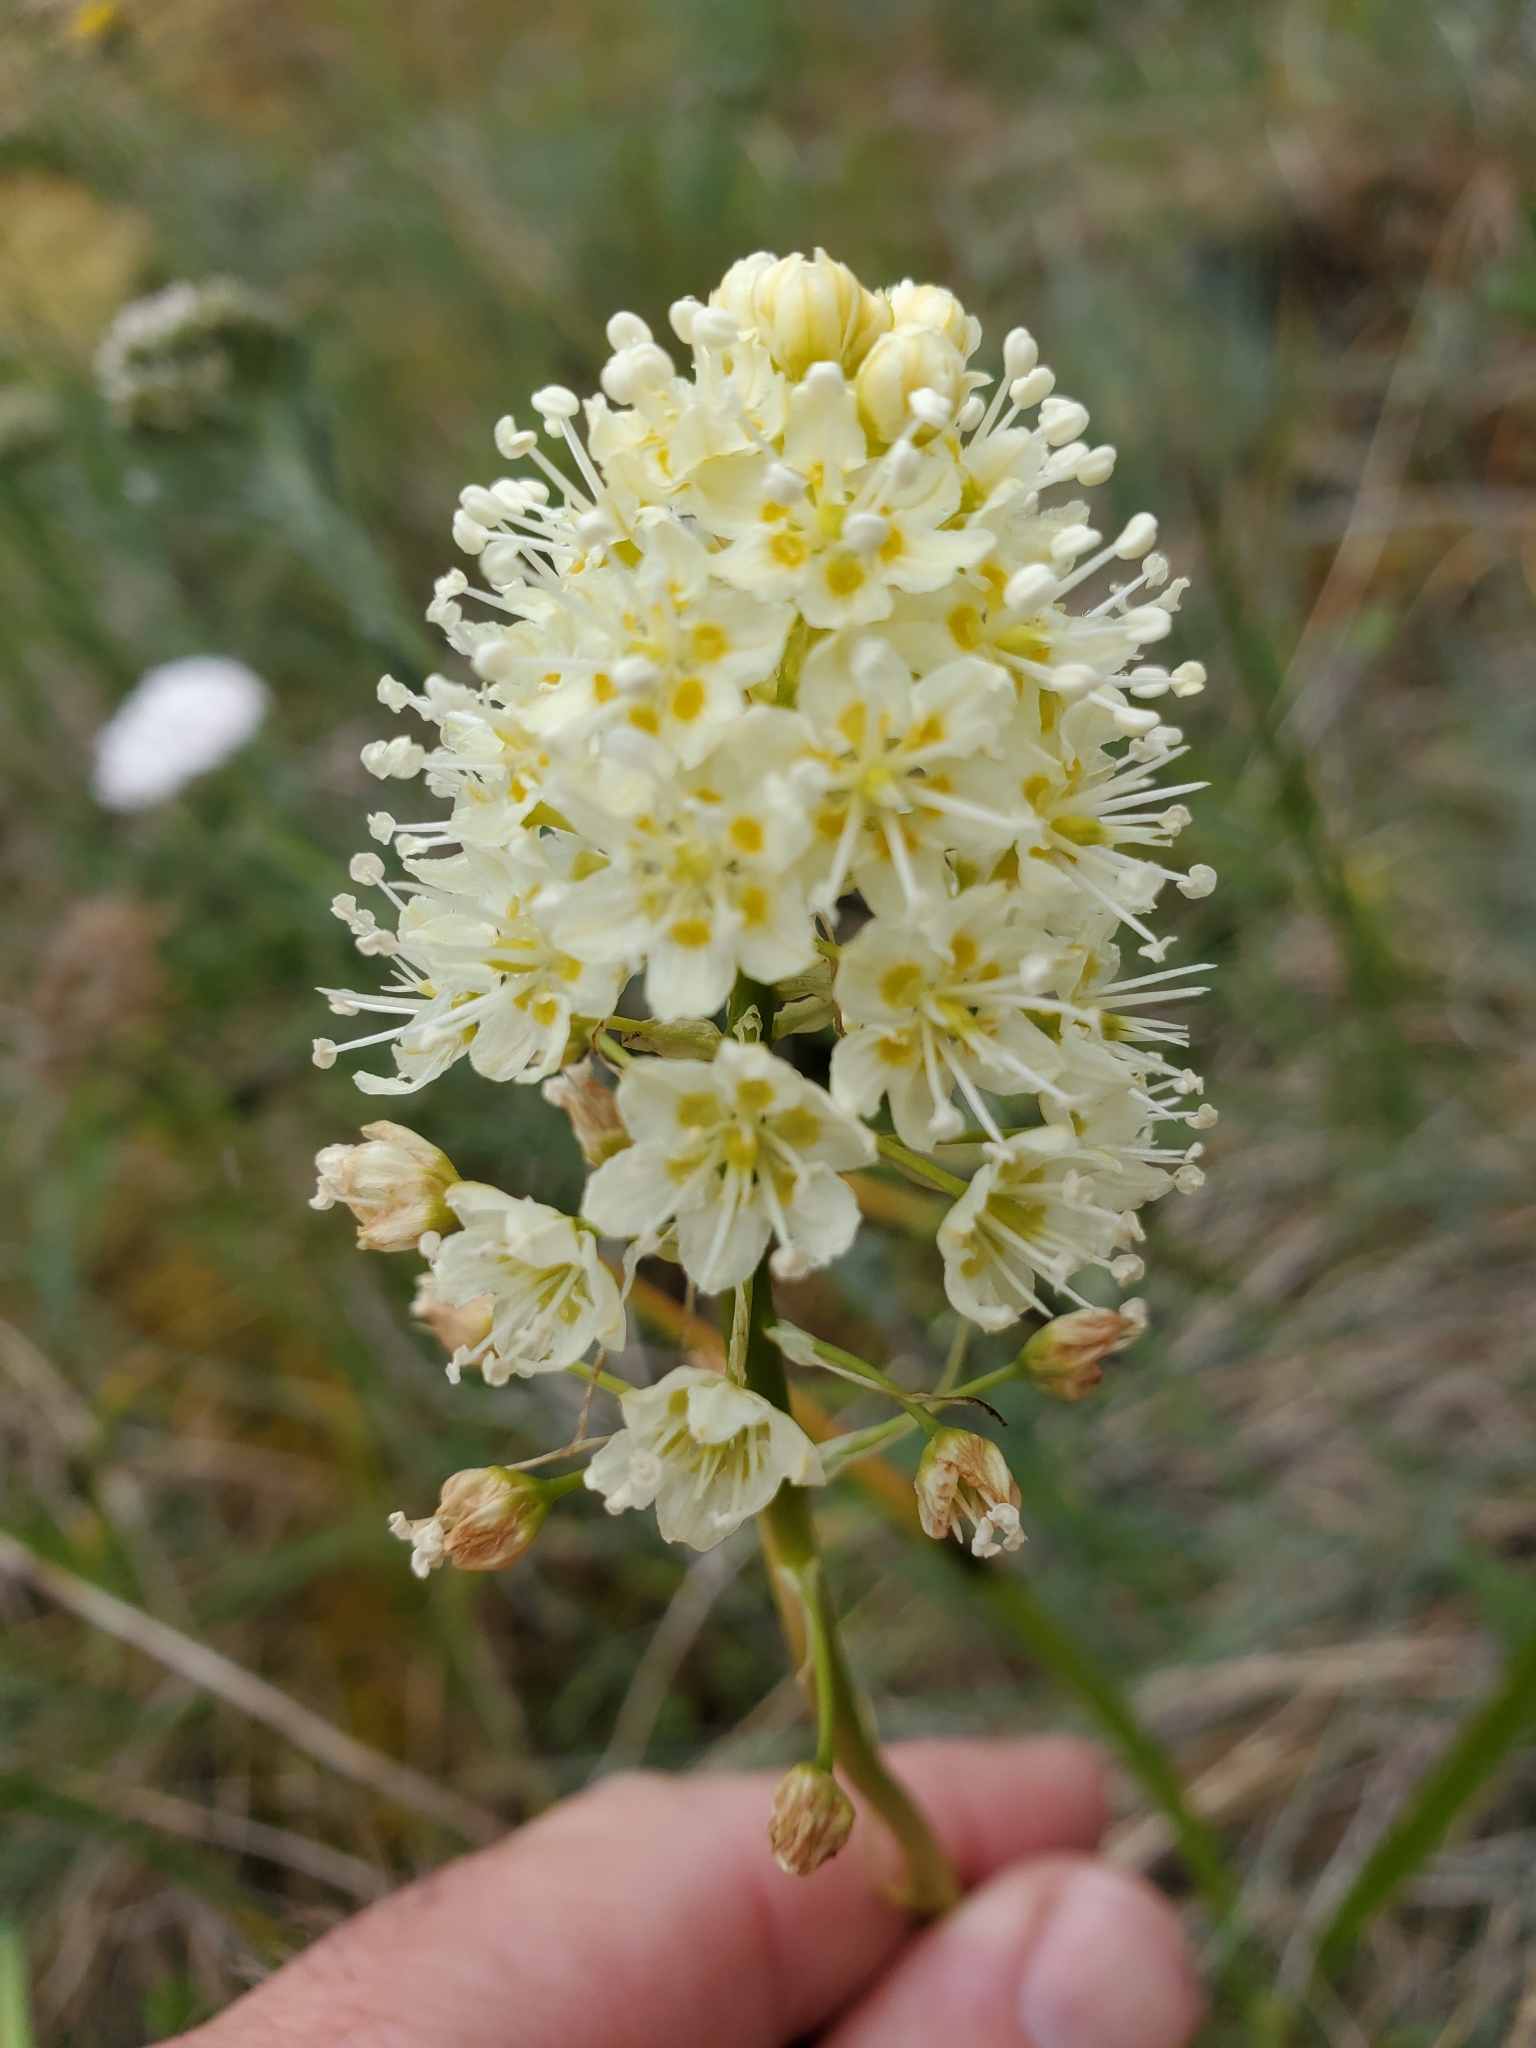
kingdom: Plantae
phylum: Tracheophyta
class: Liliopsida
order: Liliales
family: Melanthiaceae
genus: Toxicoscordion
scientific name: Toxicoscordion venenosum
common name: Meadow death camas
